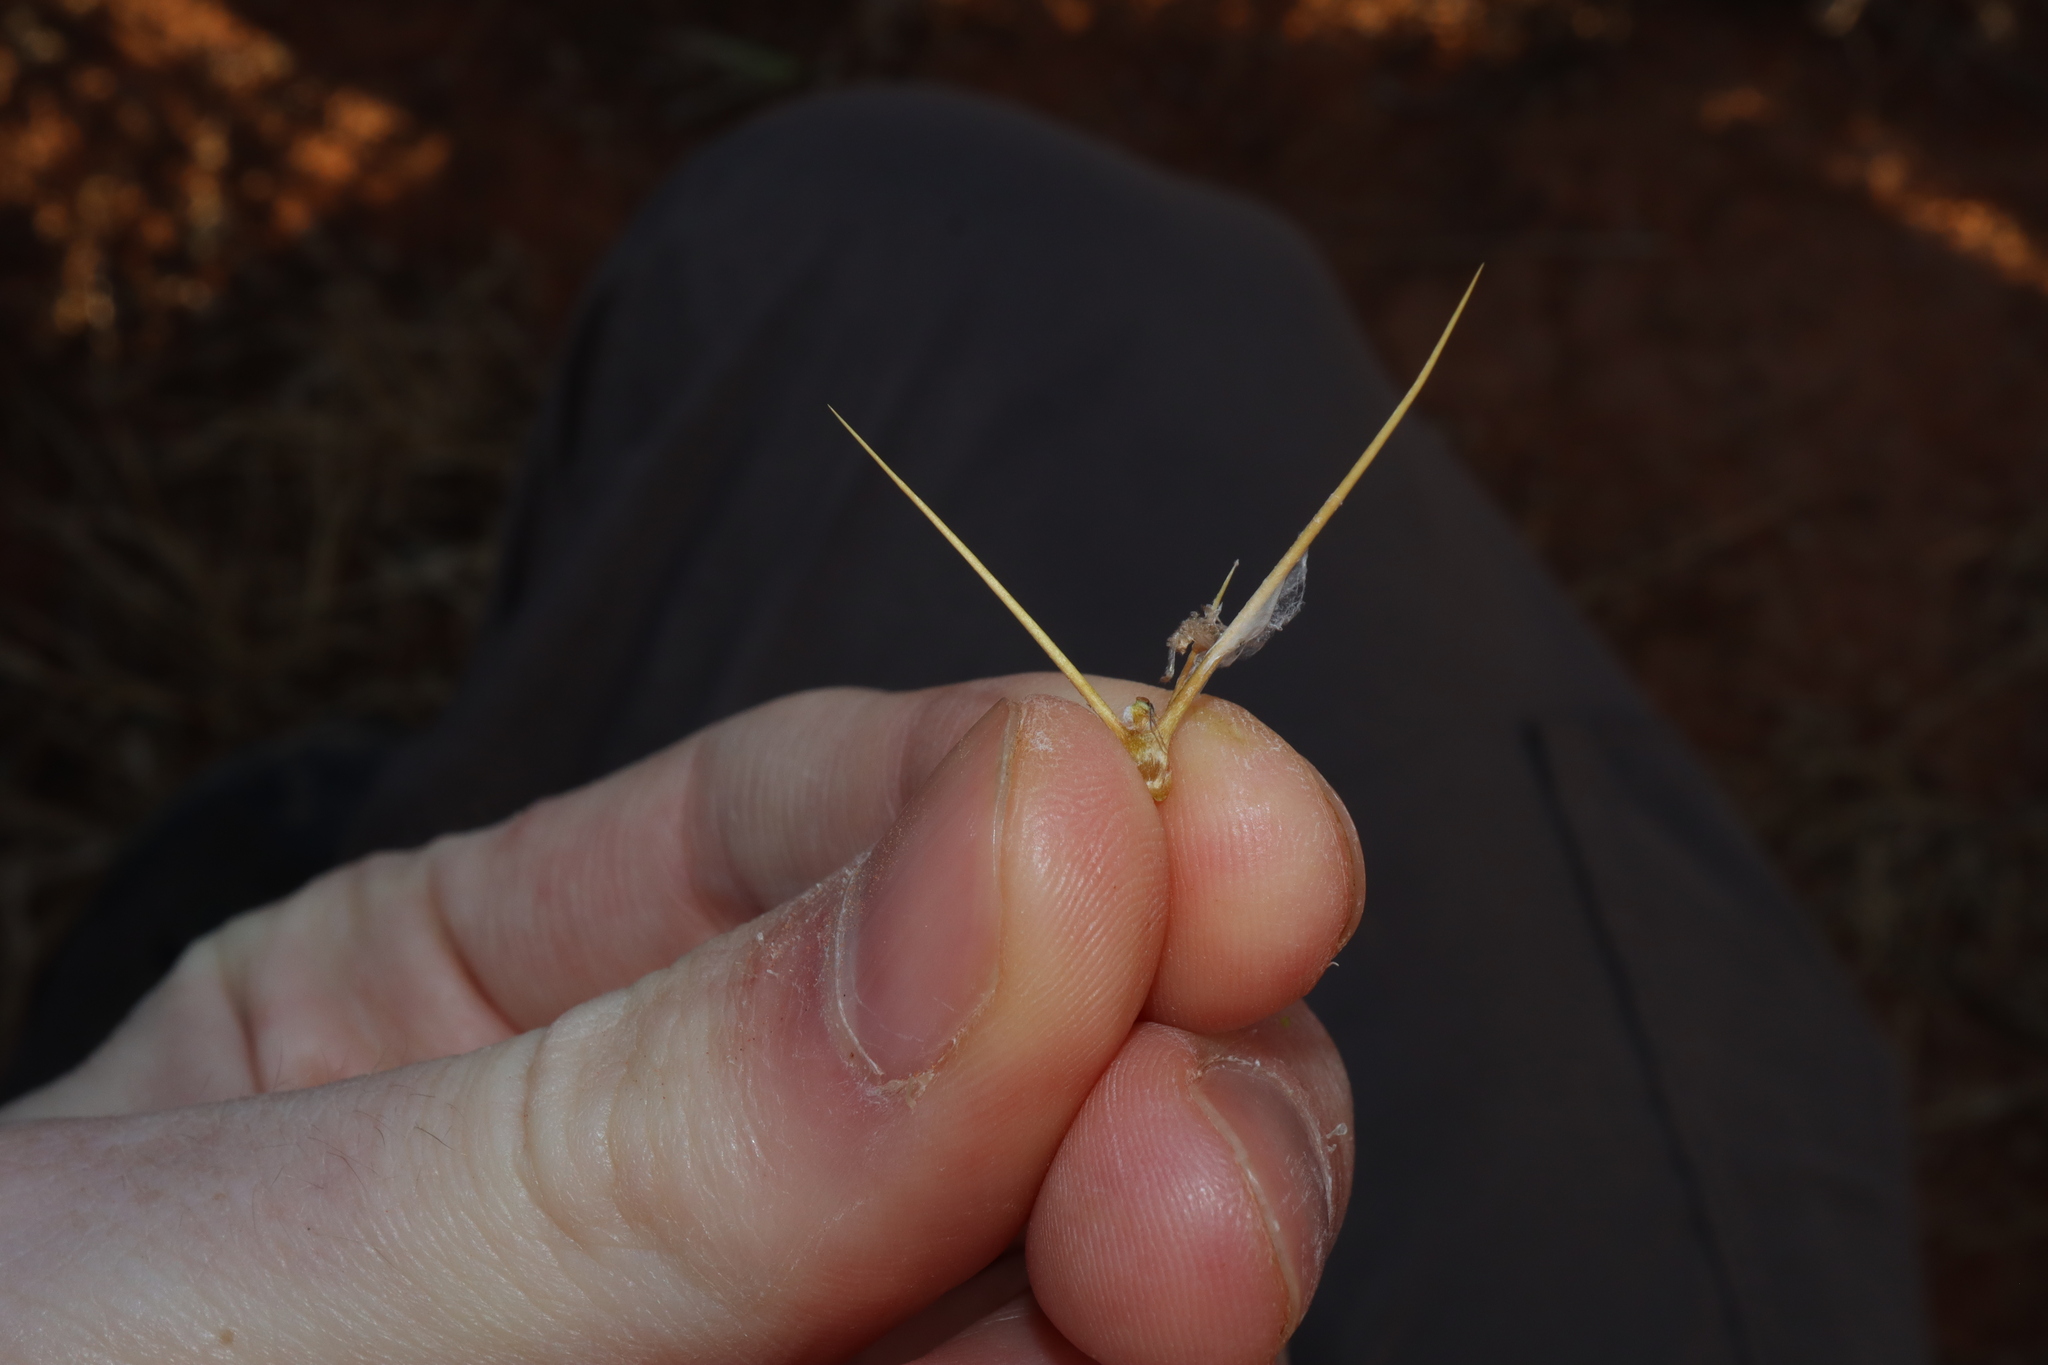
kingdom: Plantae
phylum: Tracheophyta
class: Magnoliopsida
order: Caryophyllales
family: Amaranthaceae
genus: Sclerolaena
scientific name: Sclerolaena longicuspis
